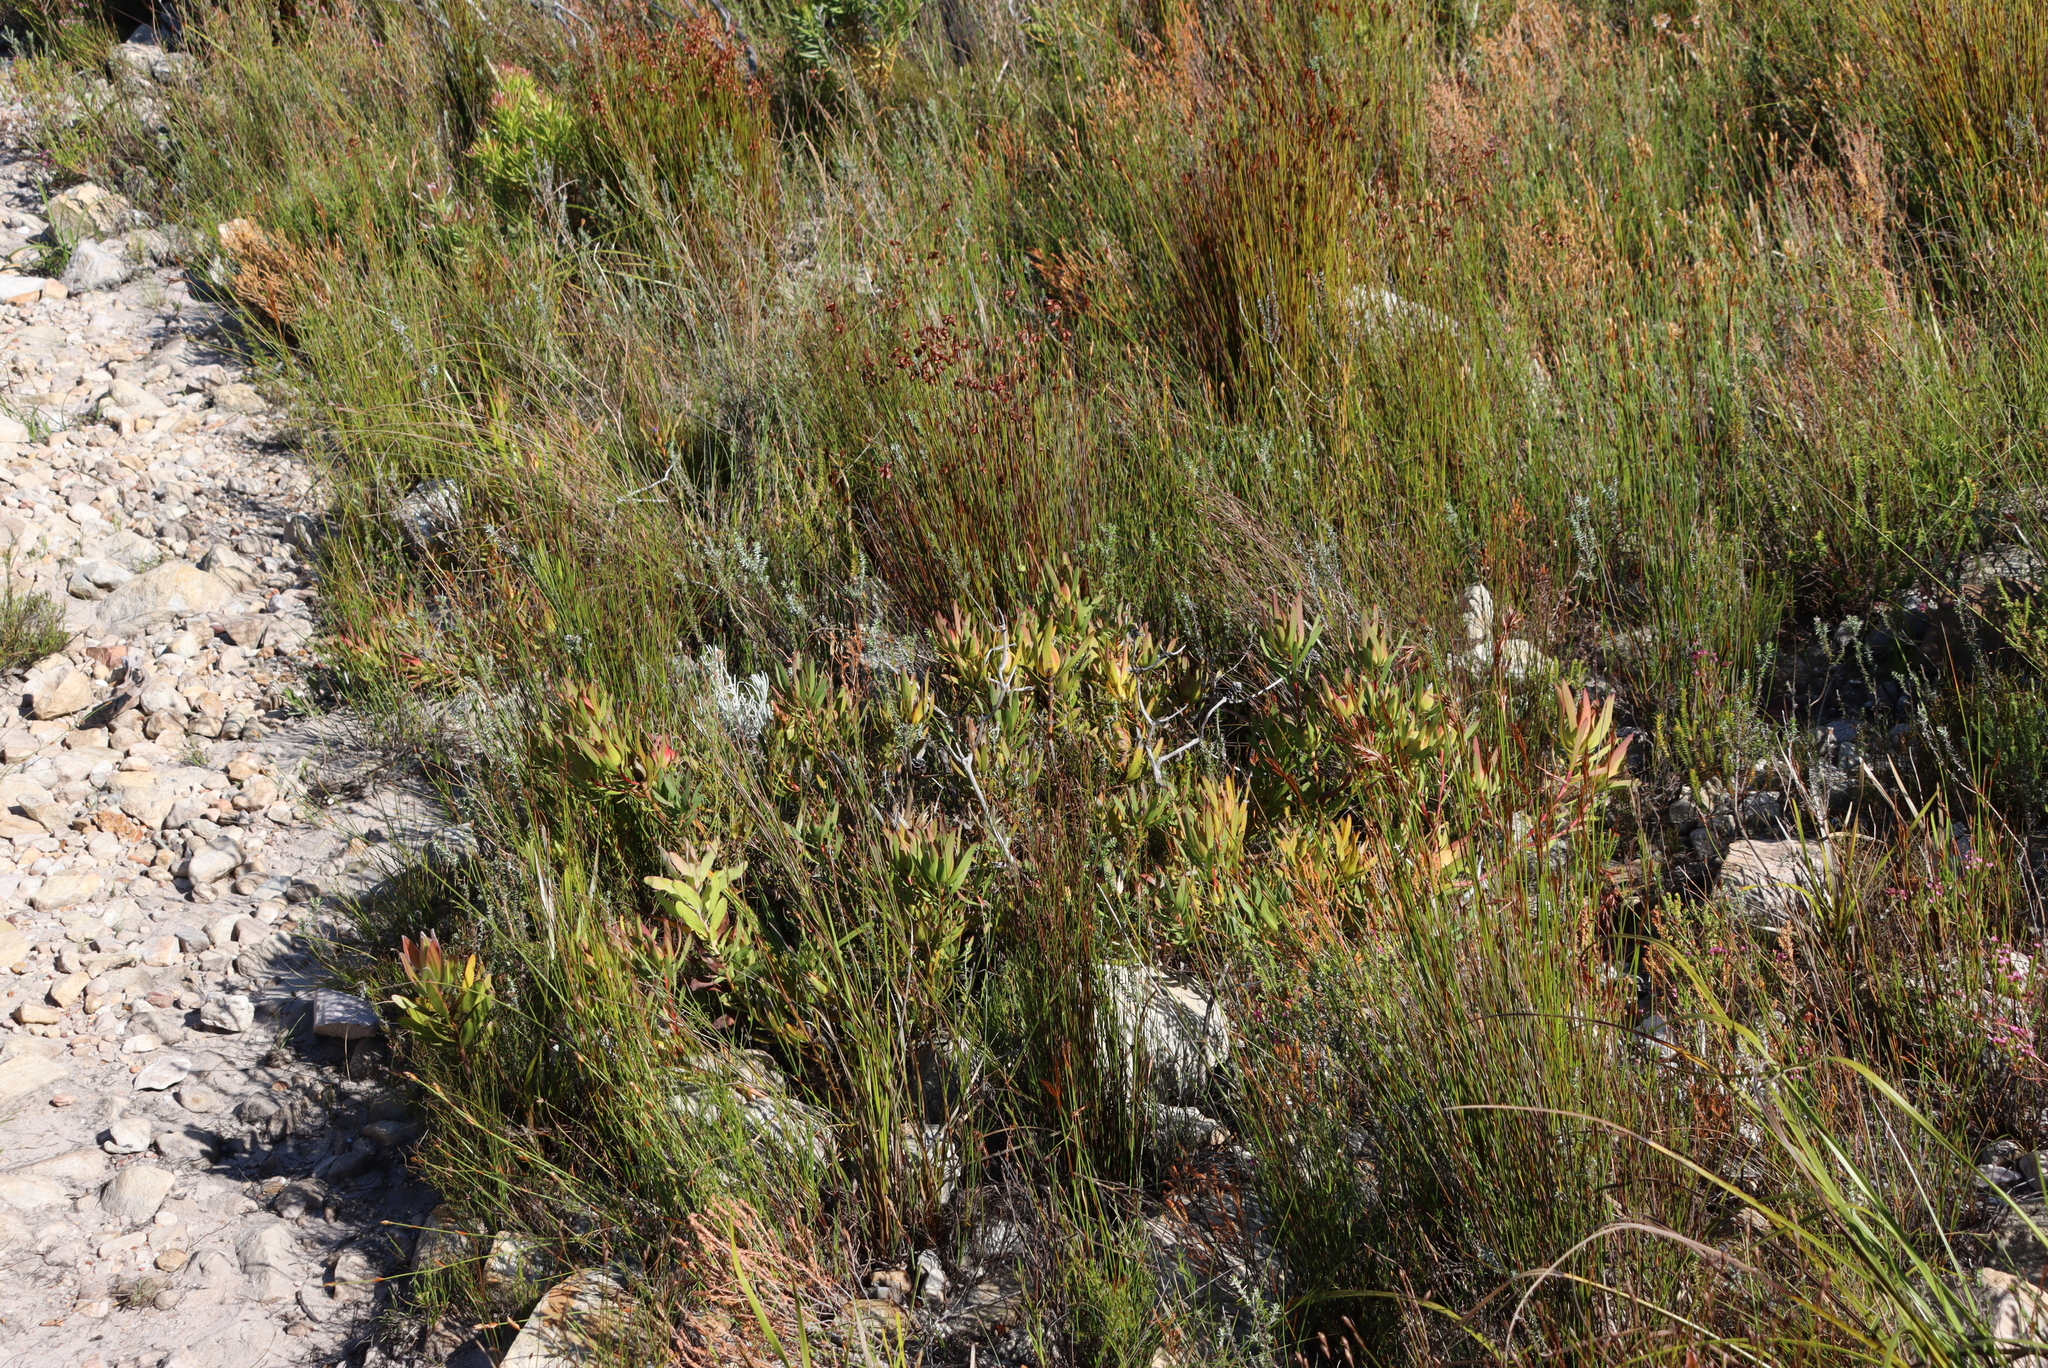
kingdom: Plantae
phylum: Tracheophyta
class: Magnoliopsida
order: Proteales
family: Proteaceae
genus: Leucadendron
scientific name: Leucadendron salignum
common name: Common sunshine conebush
